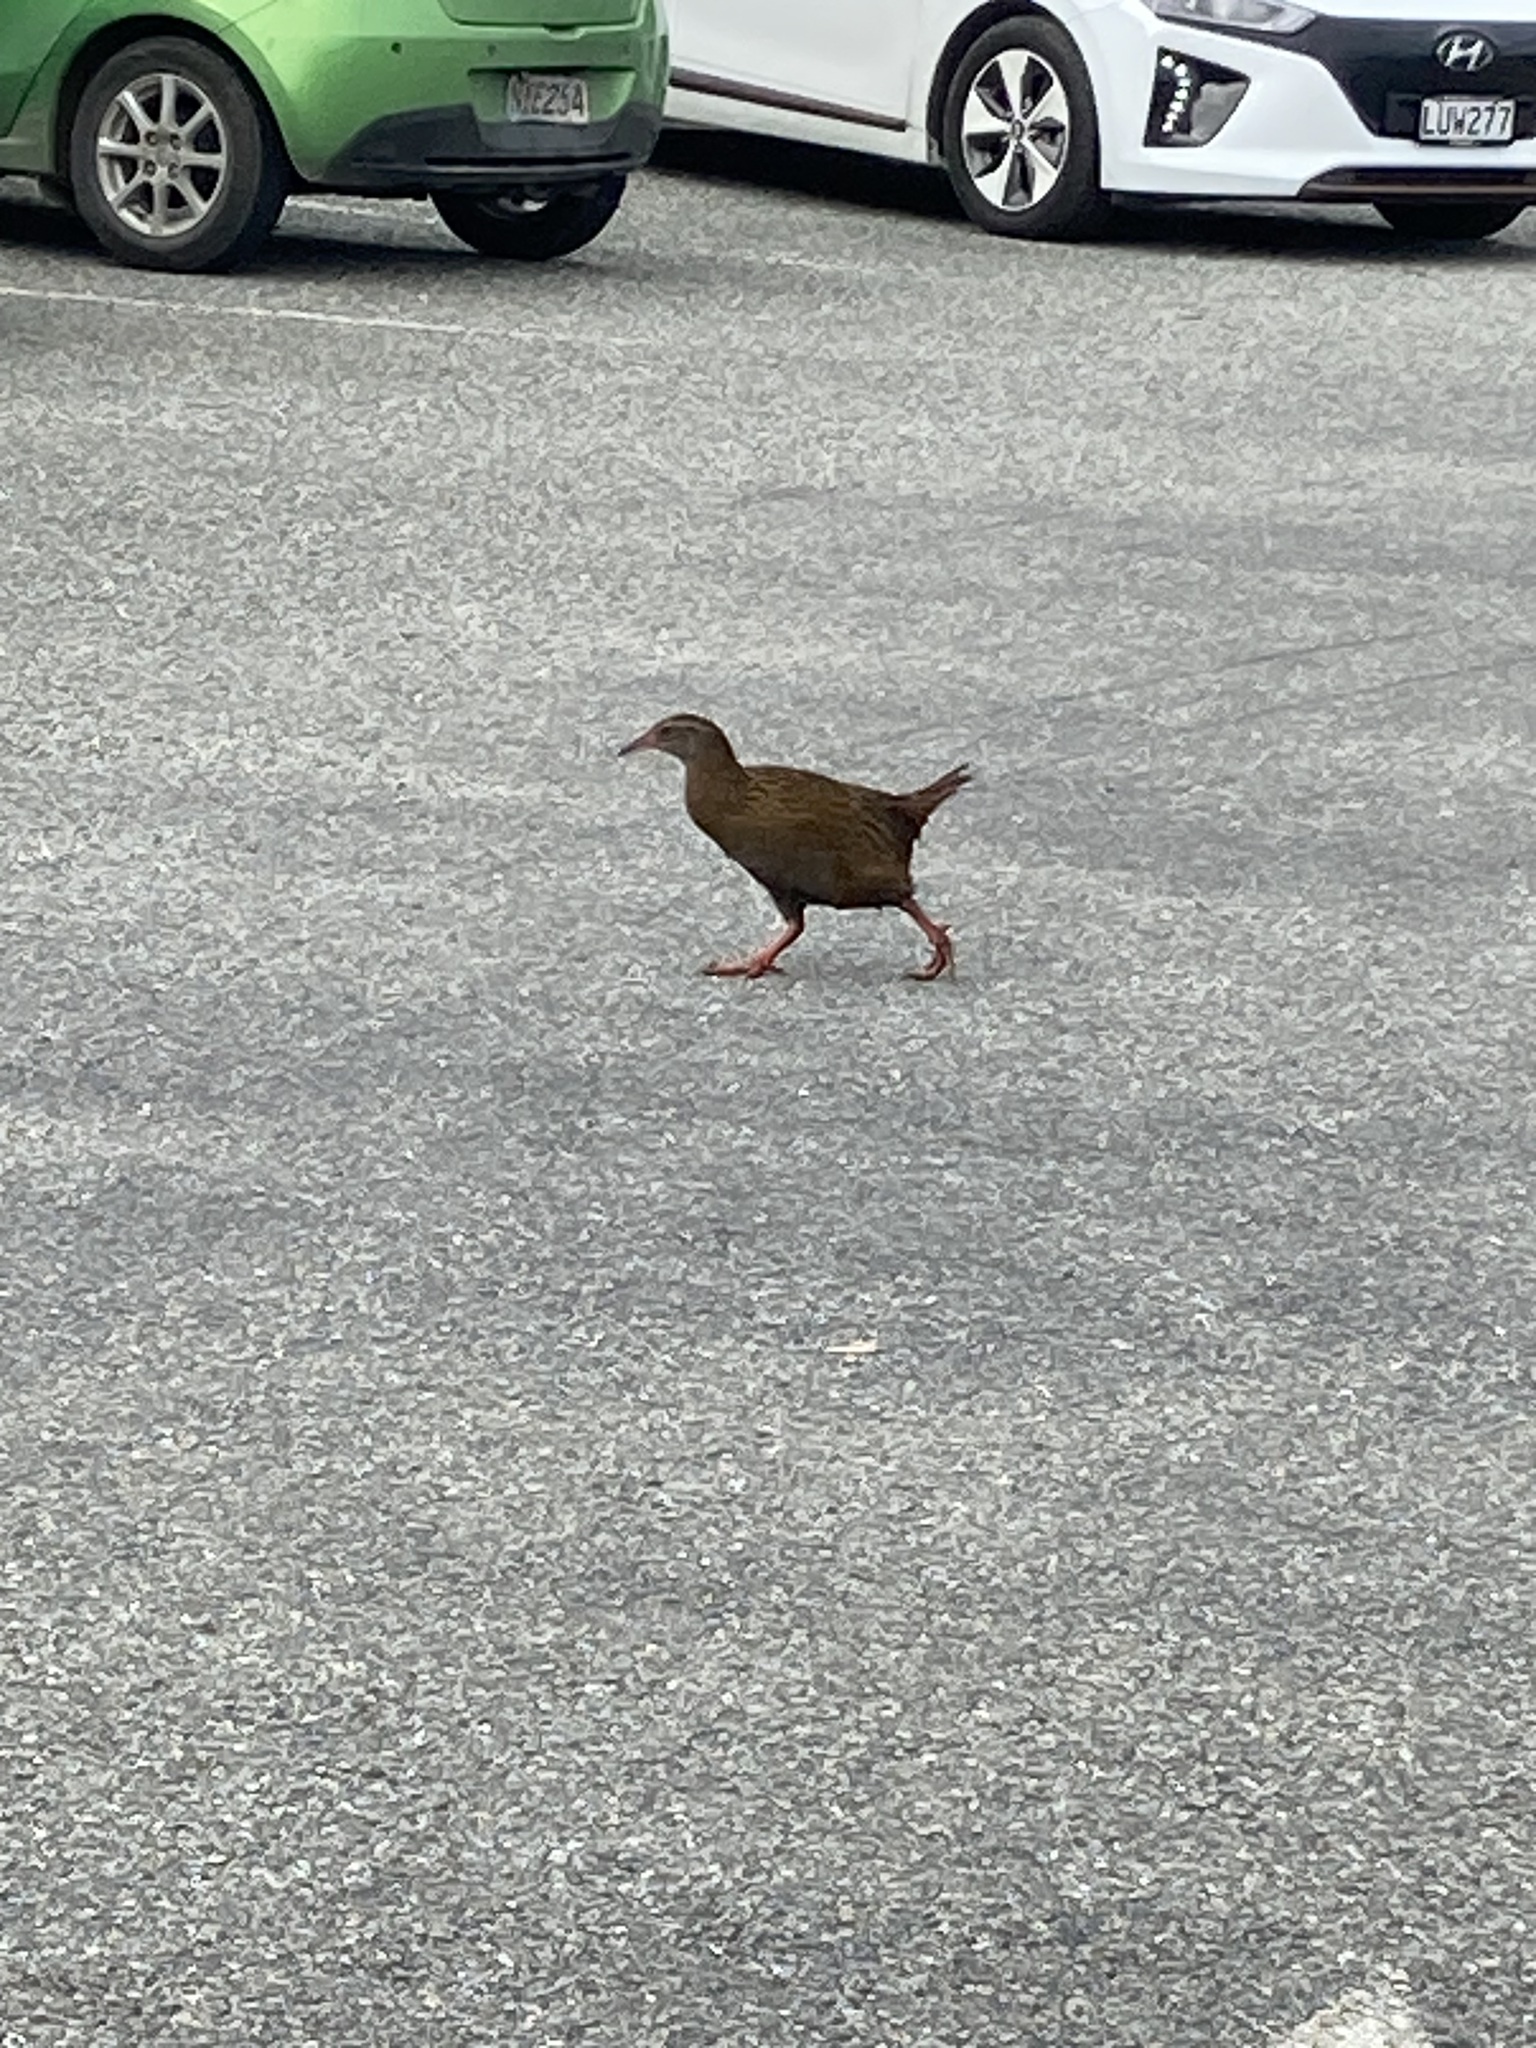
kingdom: Animalia
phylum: Chordata
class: Aves
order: Gruiformes
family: Rallidae
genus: Gallirallus
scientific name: Gallirallus australis
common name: Weka
